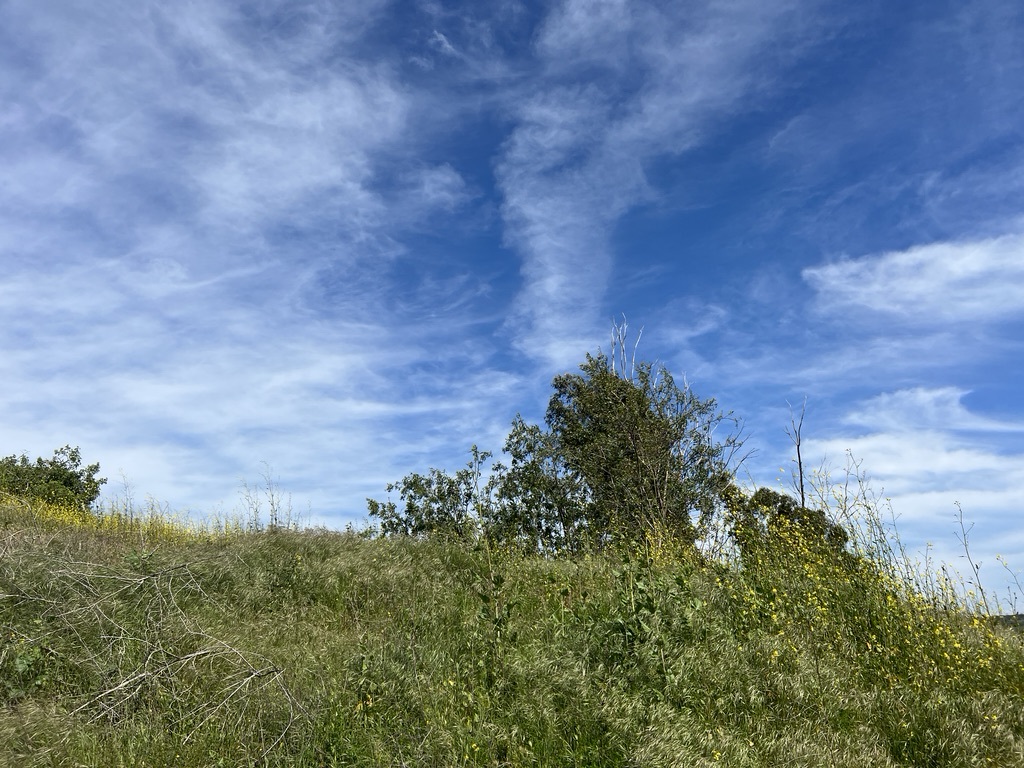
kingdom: Plantae
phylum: Tracheophyta
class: Magnoliopsida
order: Solanales
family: Solanaceae
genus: Nicotiana
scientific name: Nicotiana glauca
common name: Tree tobacco
